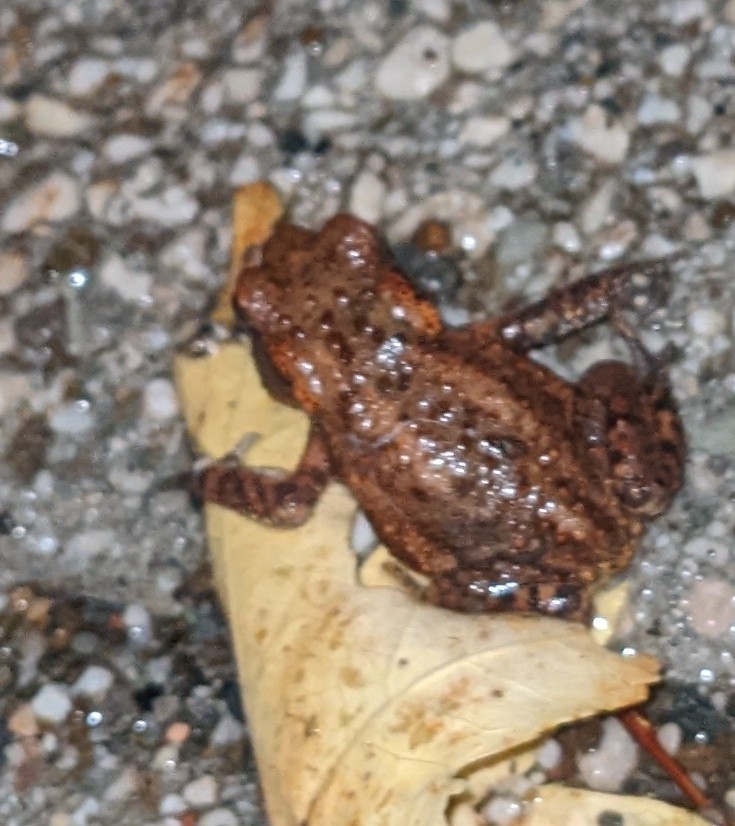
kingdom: Animalia
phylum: Chordata
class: Amphibia
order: Anura
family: Bufonidae
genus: Bufo
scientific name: Bufo bufo
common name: Common toad
